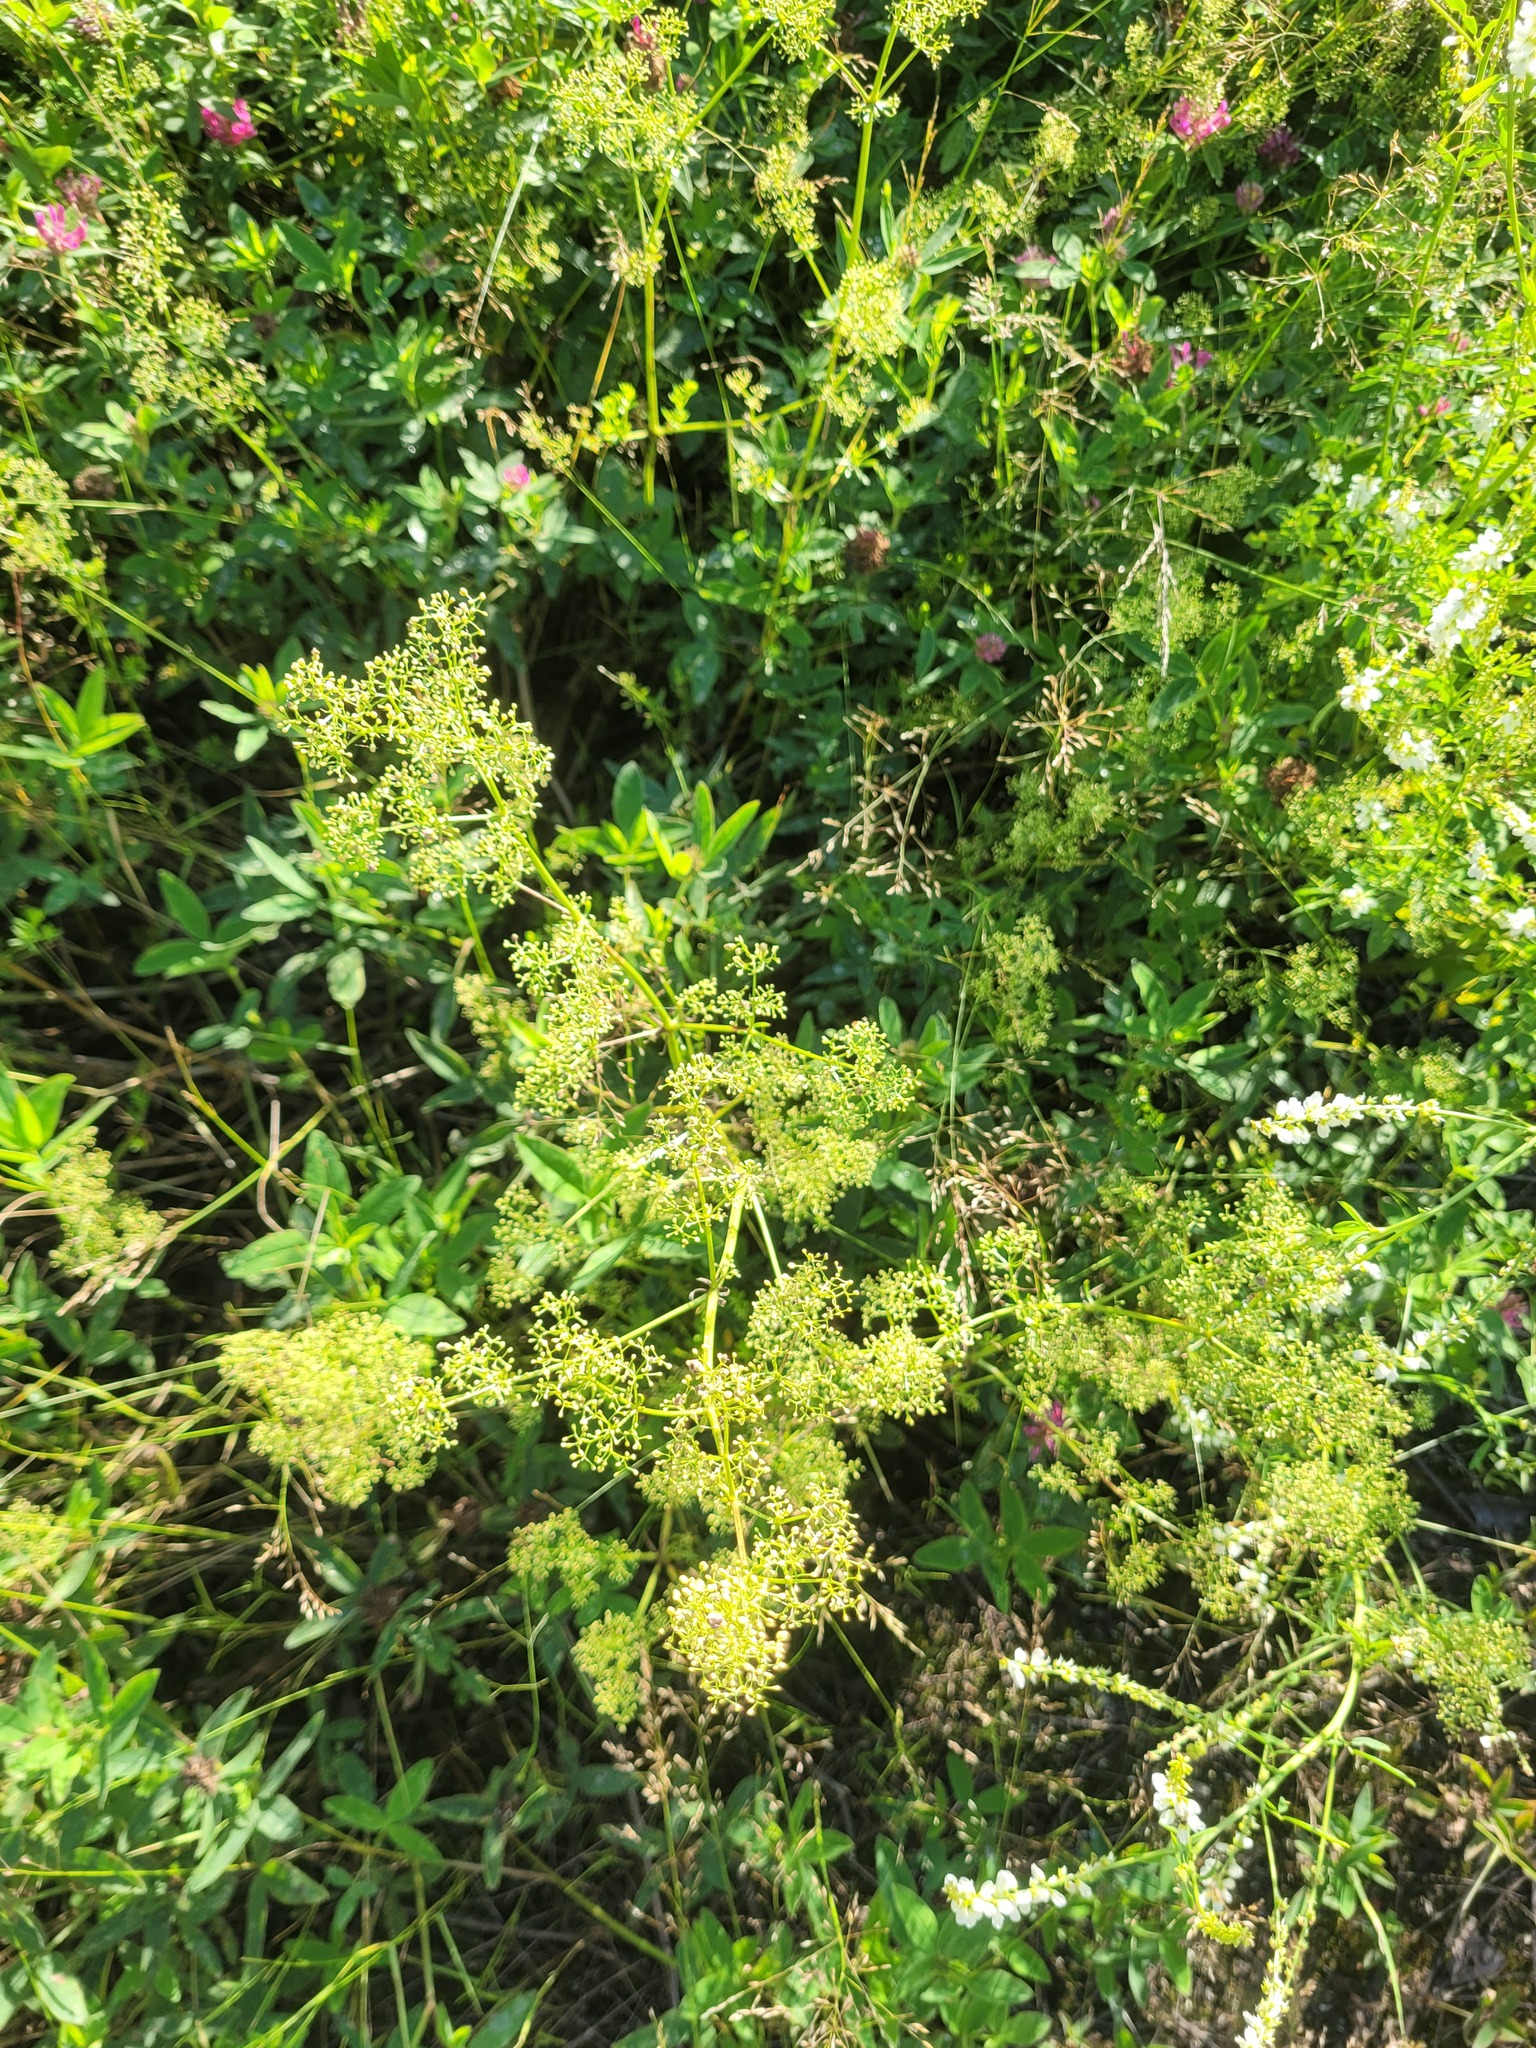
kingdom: Plantae
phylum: Tracheophyta
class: Magnoliopsida
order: Gentianales
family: Rubiaceae
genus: Galium
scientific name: Galium mollugo
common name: Hedge bedstraw
